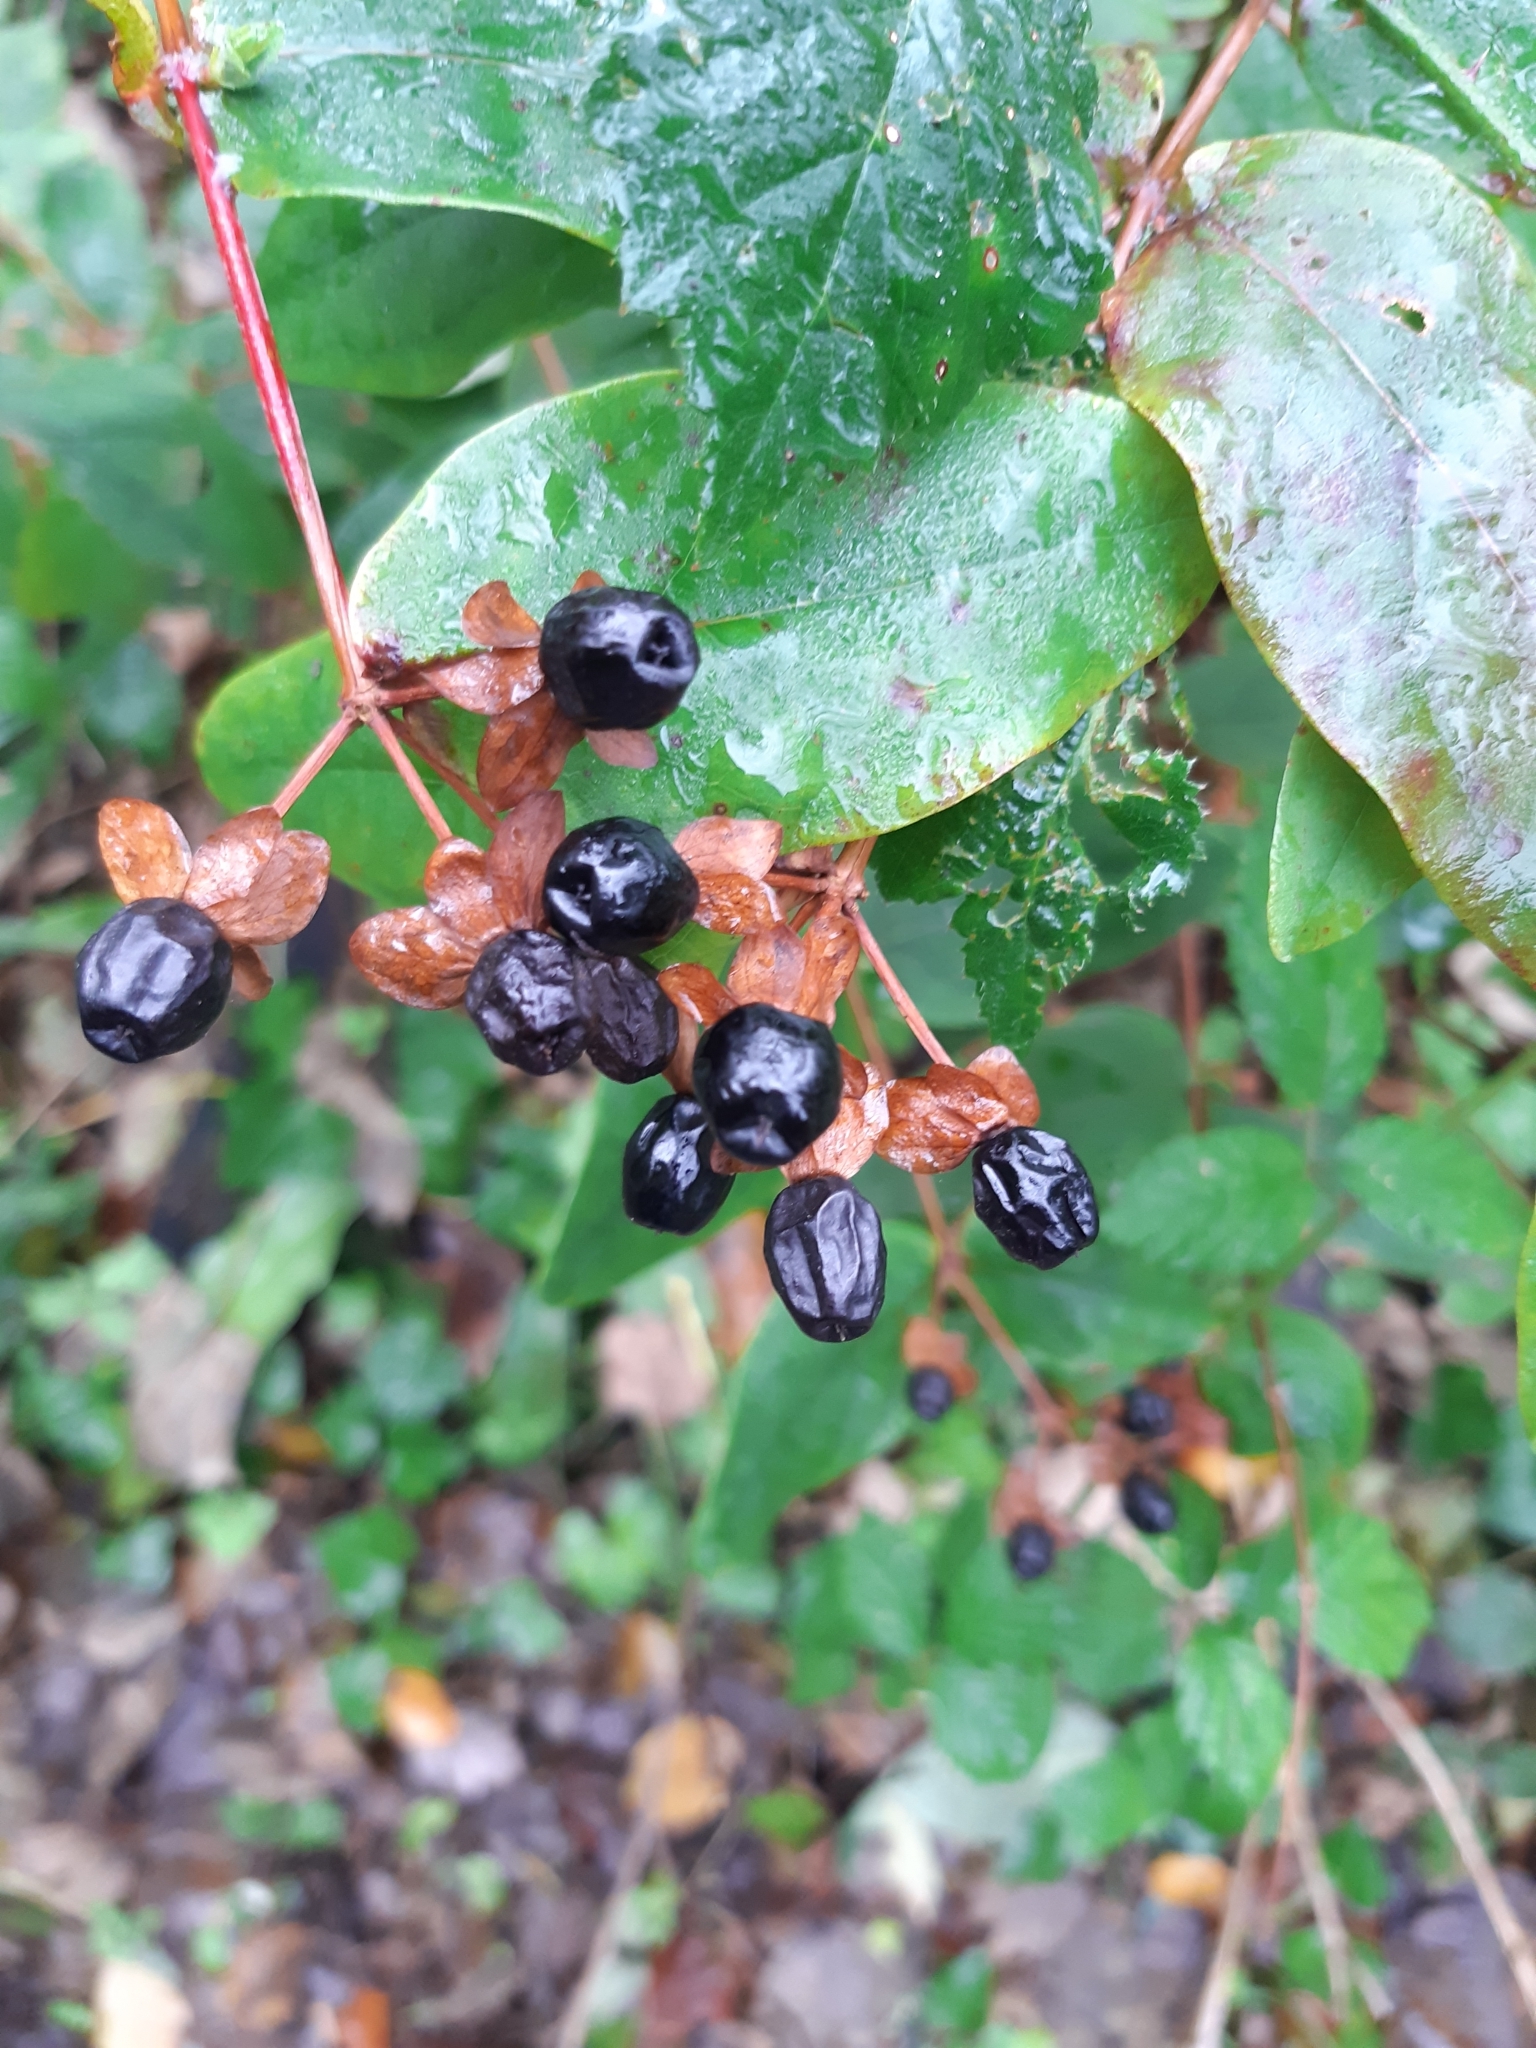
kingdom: Plantae
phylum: Tracheophyta
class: Magnoliopsida
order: Malpighiales
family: Hypericaceae
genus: Hypericum
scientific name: Hypericum androsaemum
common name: Sweet-amber
